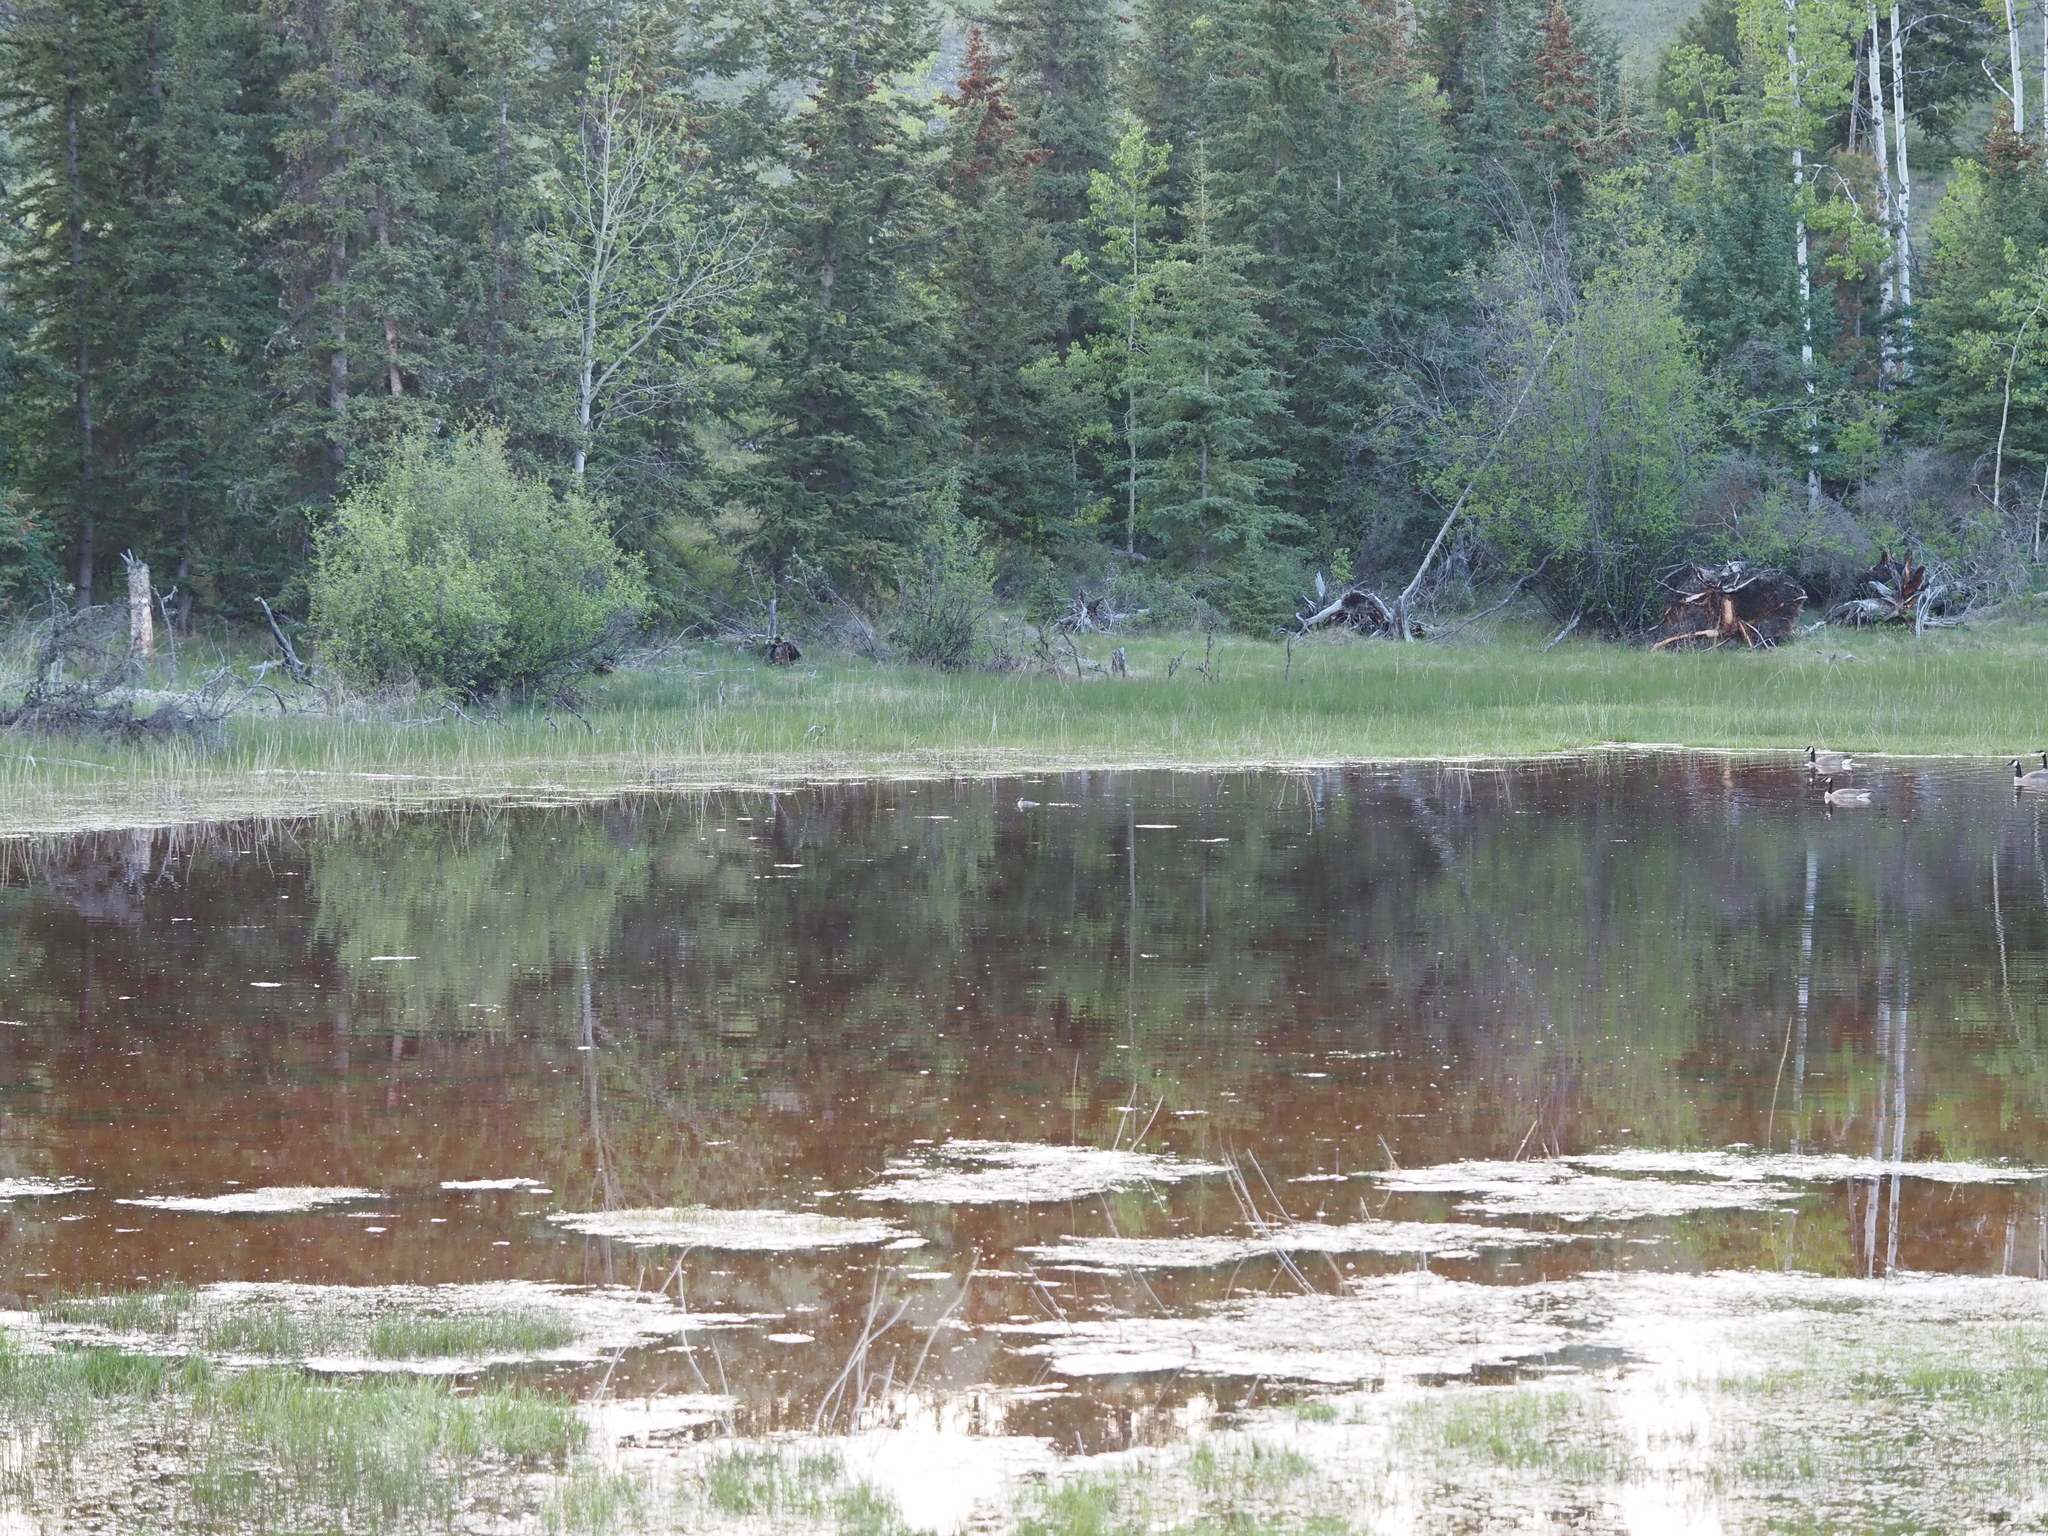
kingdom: Animalia
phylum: Chordata
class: Aves
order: Anseriformes
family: Anatidae
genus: Bucephala
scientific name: Bucephala albeola
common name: Bufflehead
